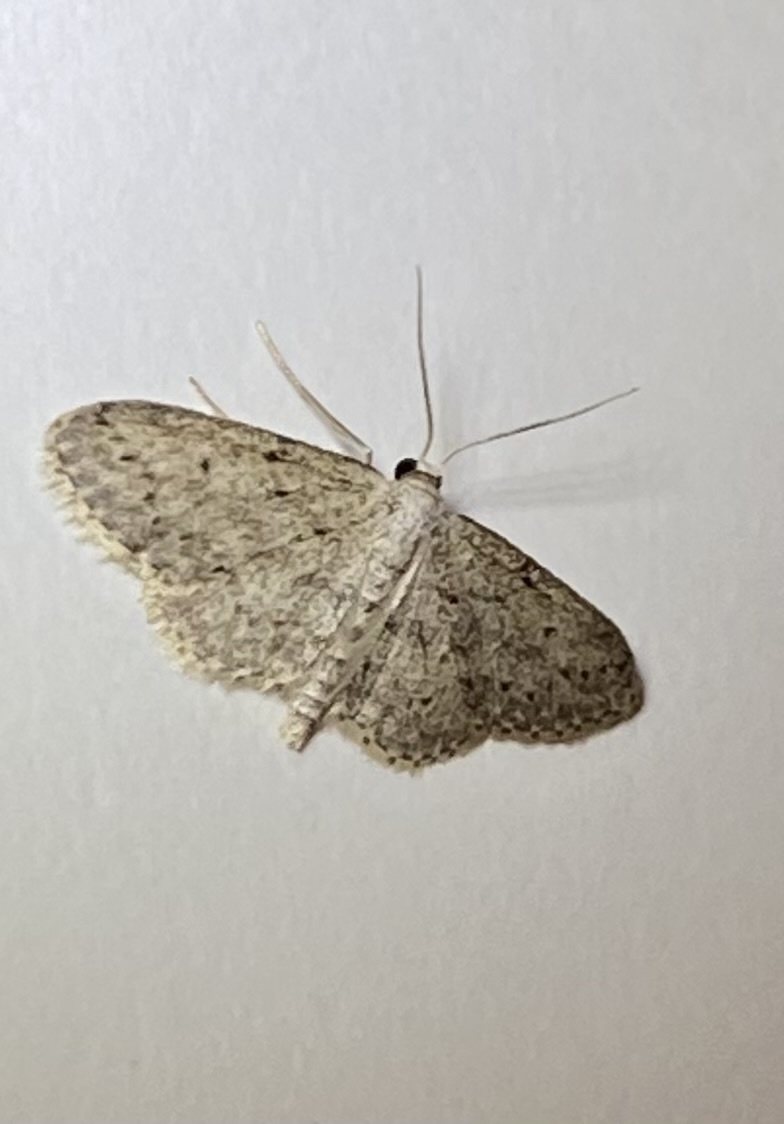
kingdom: Animalia
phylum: Arthropoda
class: Insecta
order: Lepidoptera
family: Geometridae
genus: Idaea
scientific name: Idaea seriata
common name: Small dusty wave
